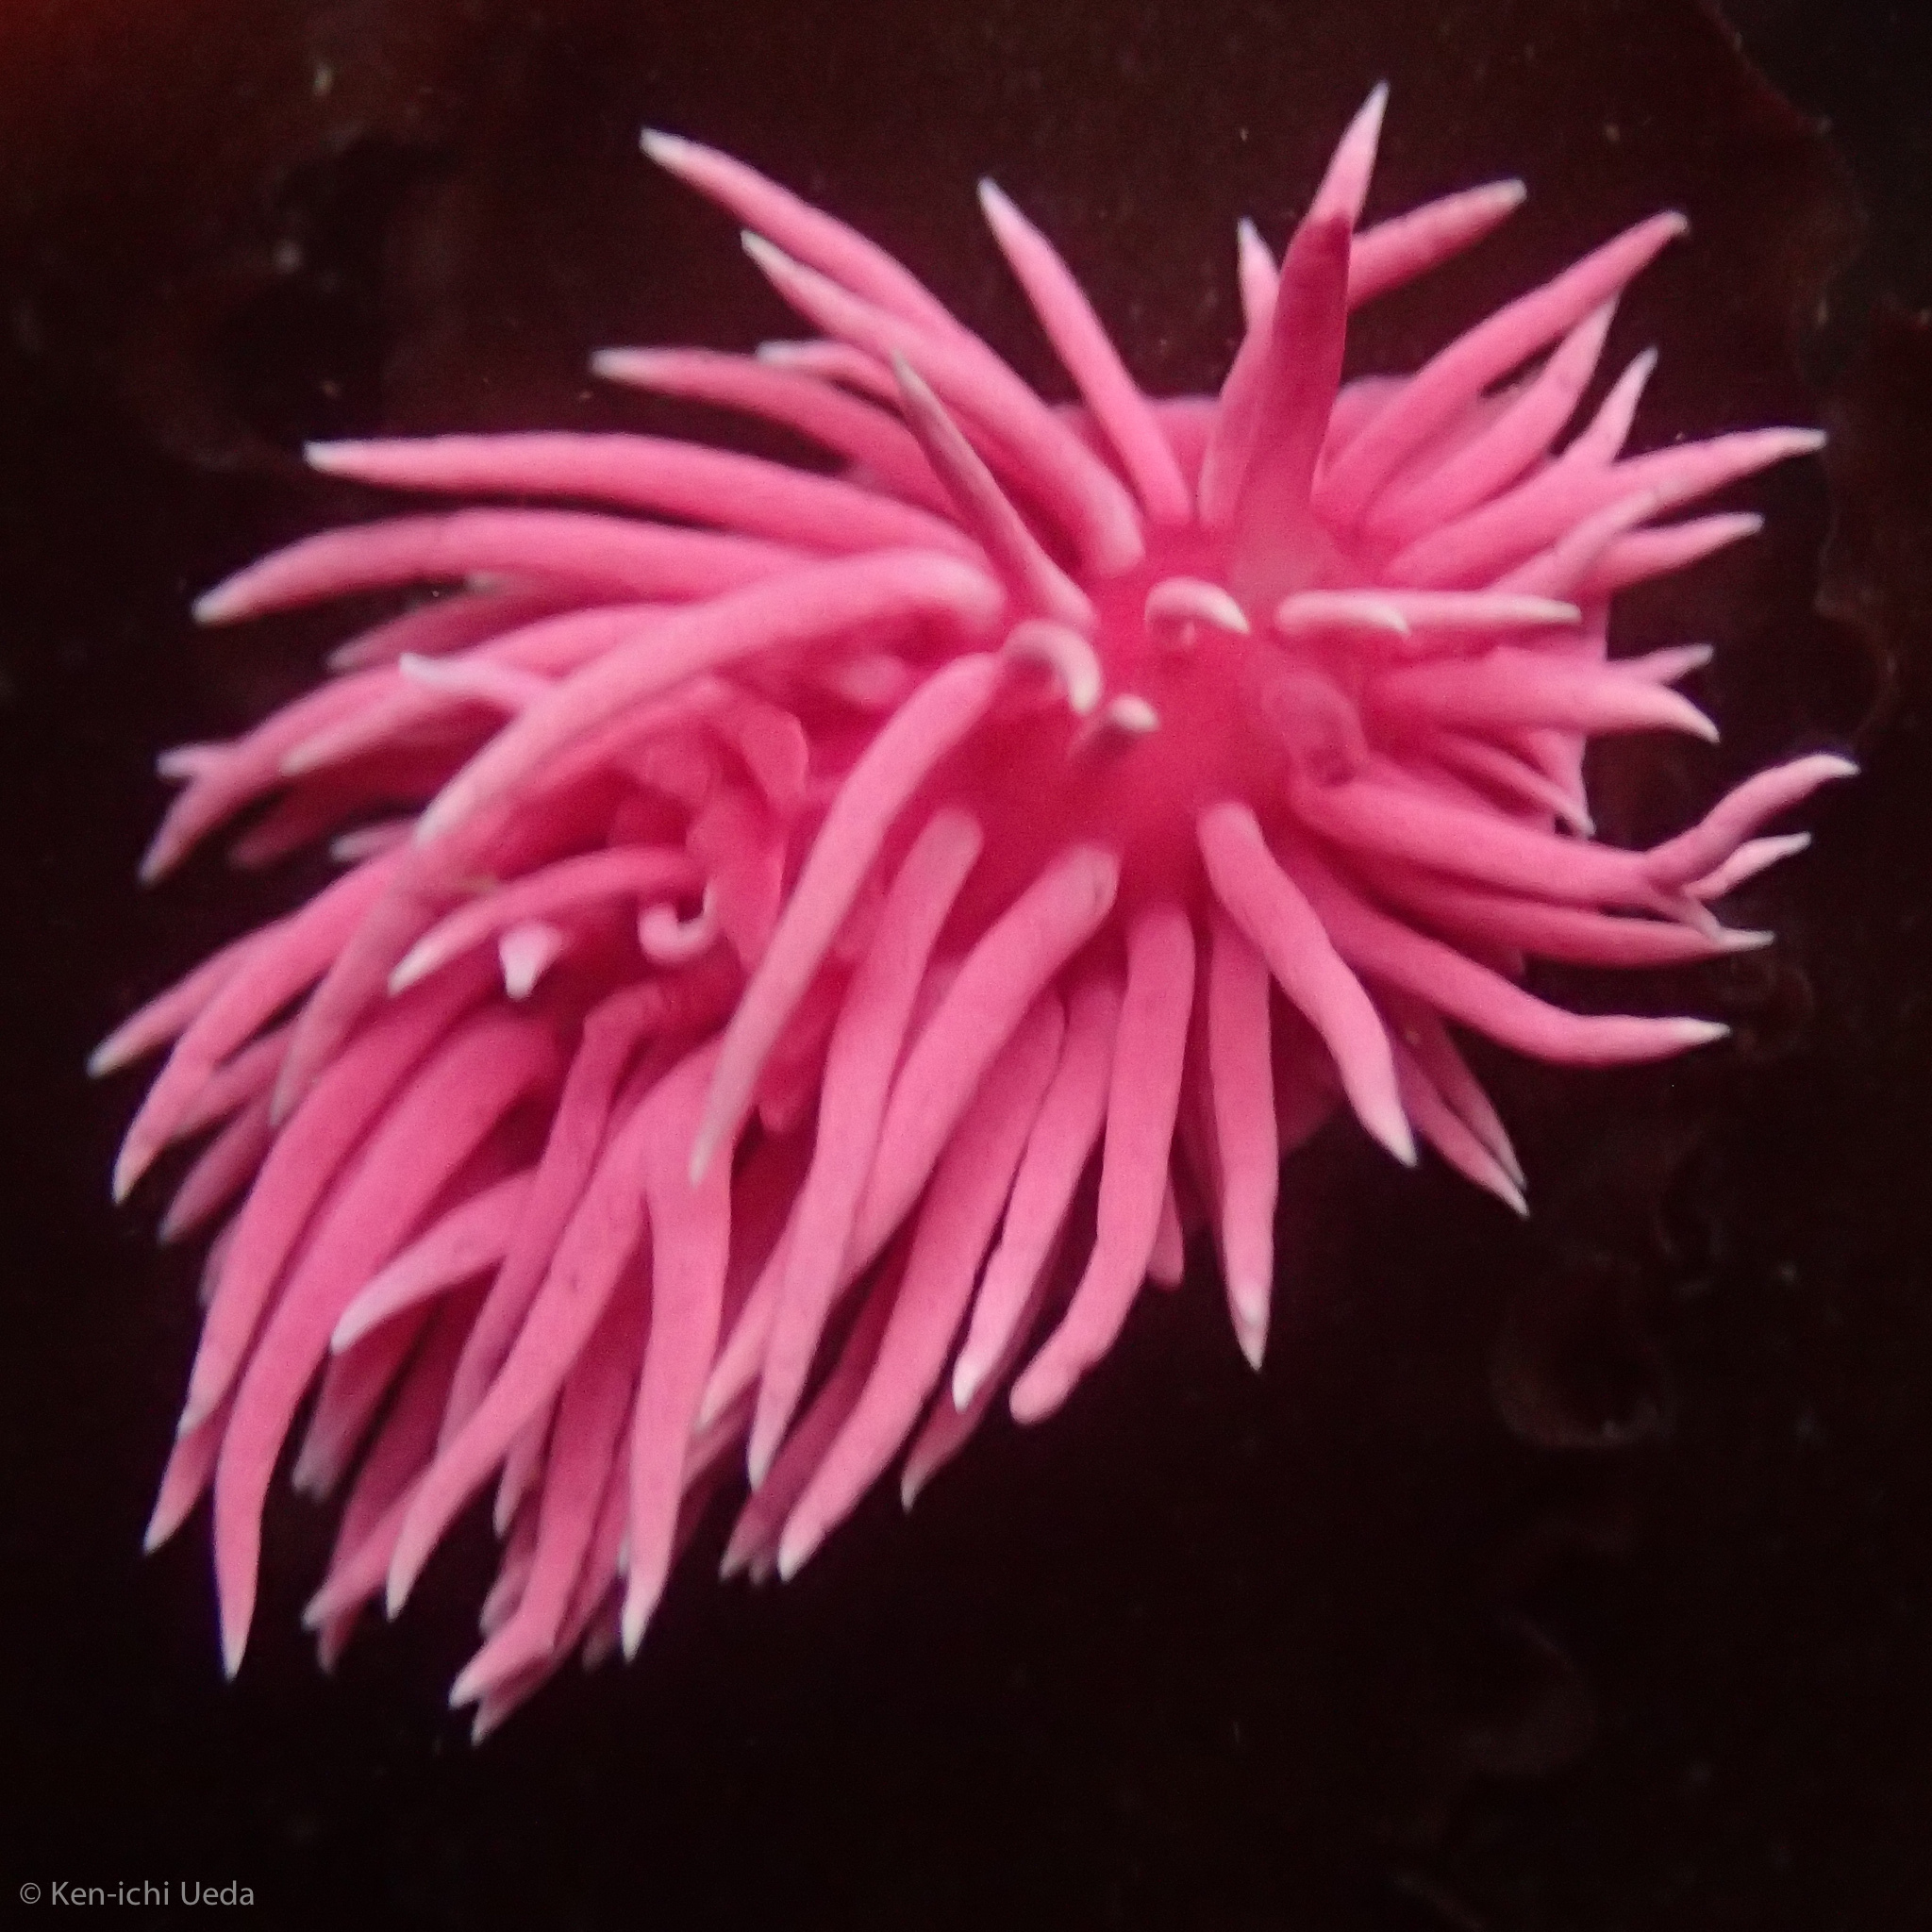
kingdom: Animalia
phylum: Mollusca
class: Gastropoda
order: Nudibranchia
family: Goniodorididae
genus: Okenia
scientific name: Okenia
